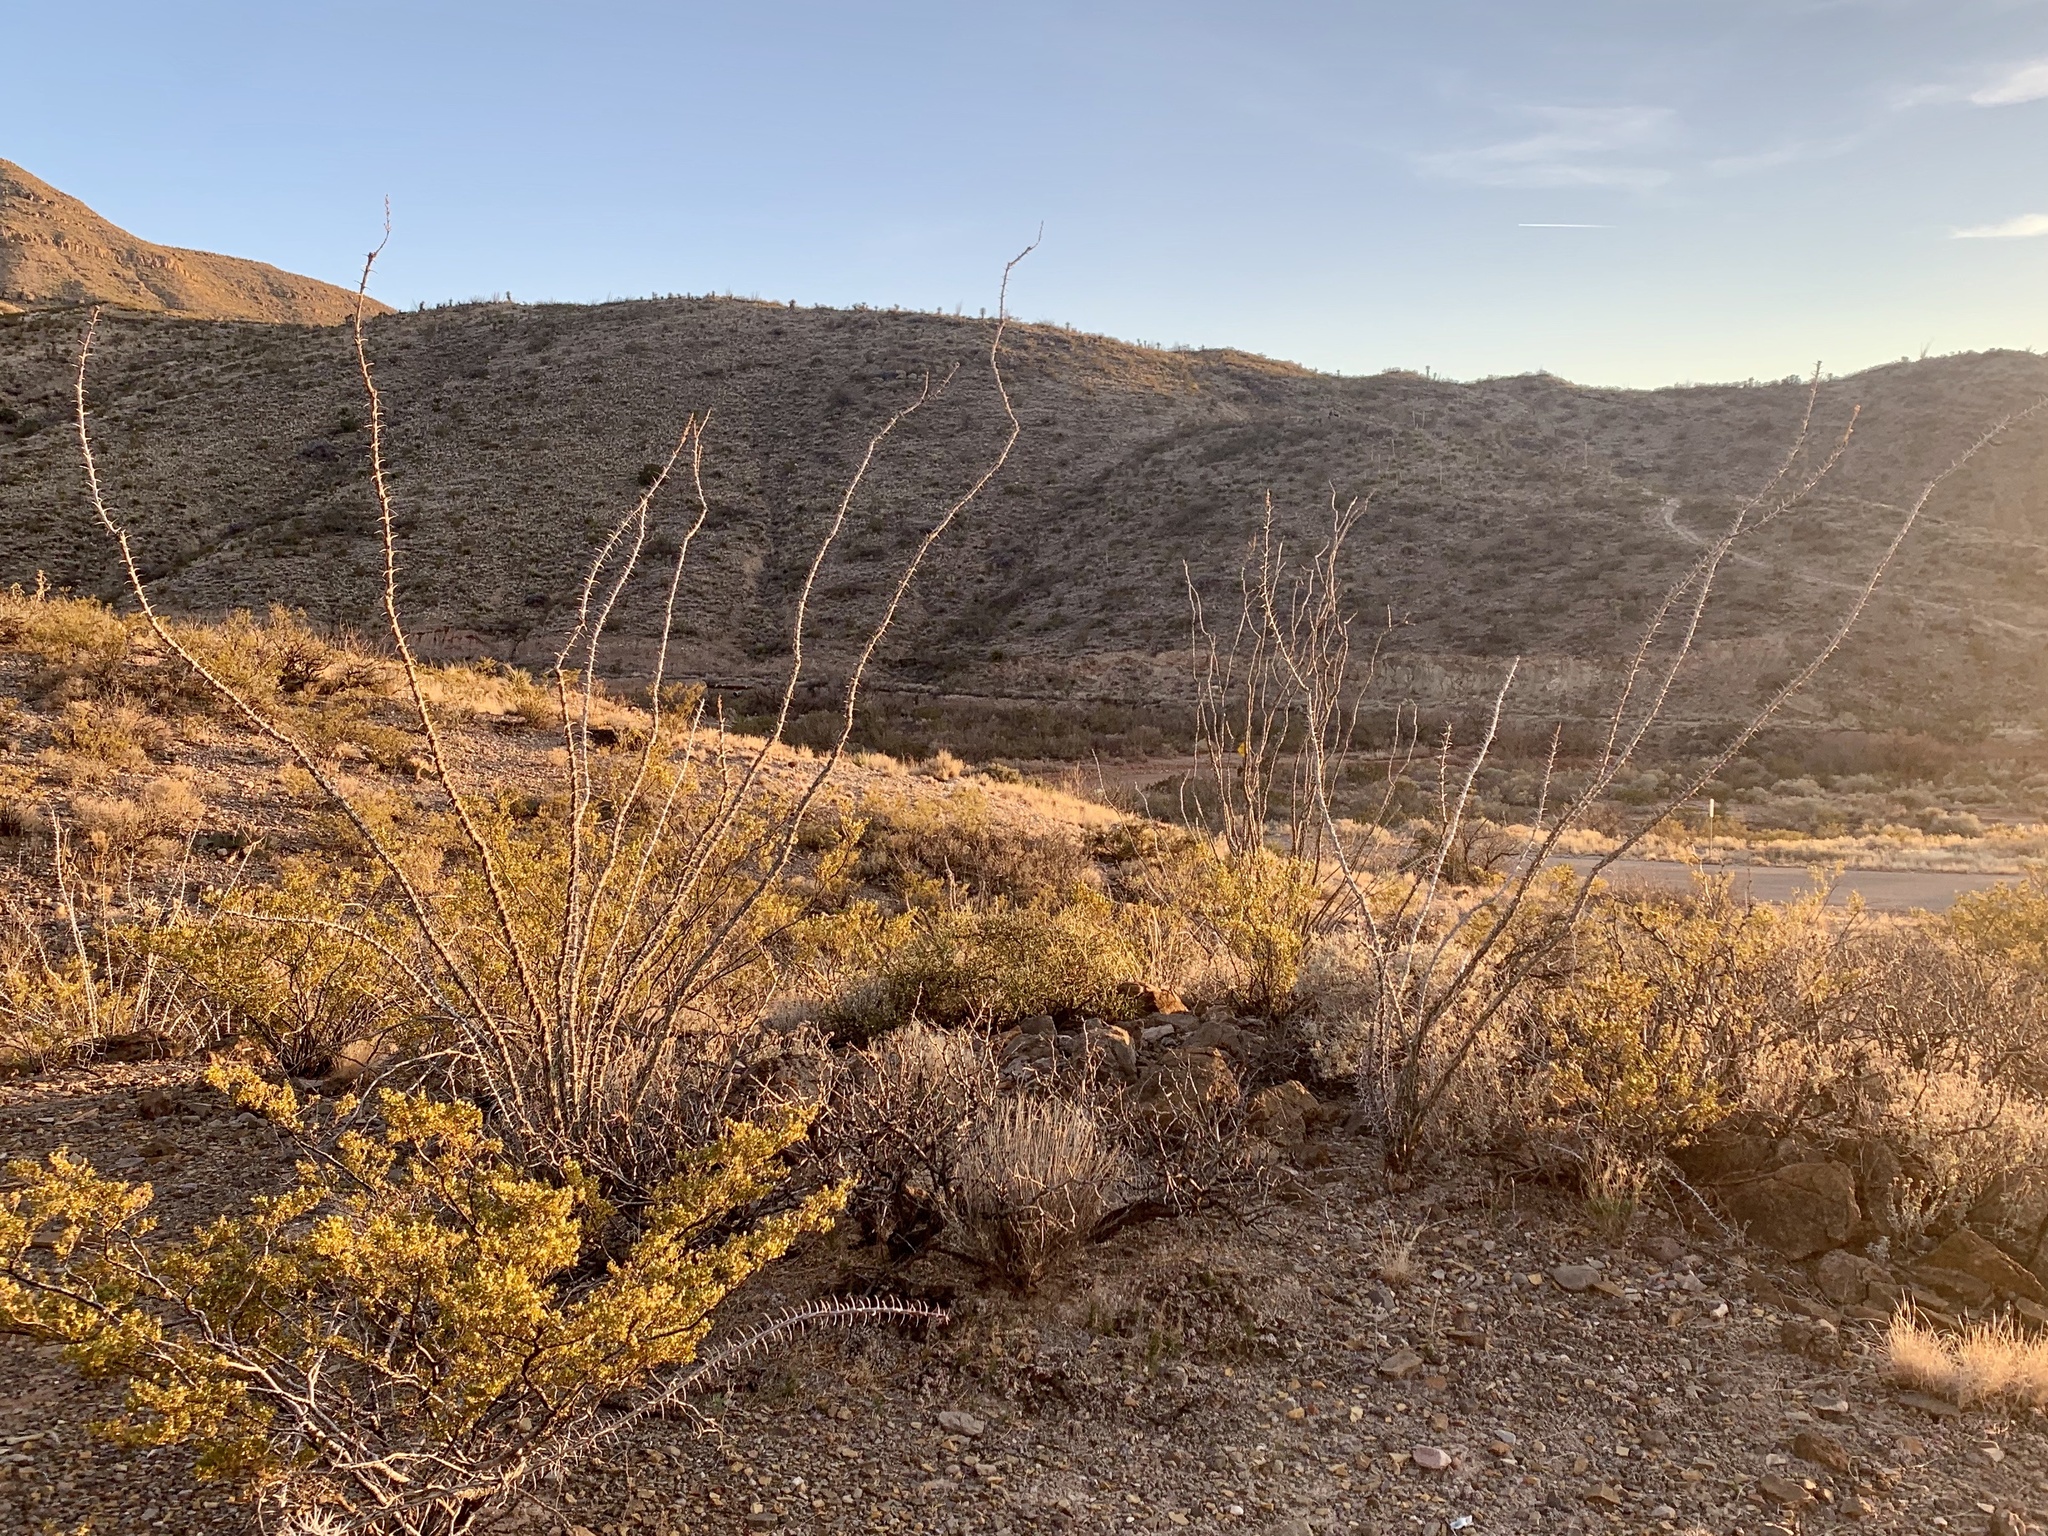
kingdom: Plantae
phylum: Tracheophyta
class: Magnoliopsida
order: Ericales
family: Fouquieriaceae
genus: Fouquieria
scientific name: Fouquieria splendens
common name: Vine-cactus
